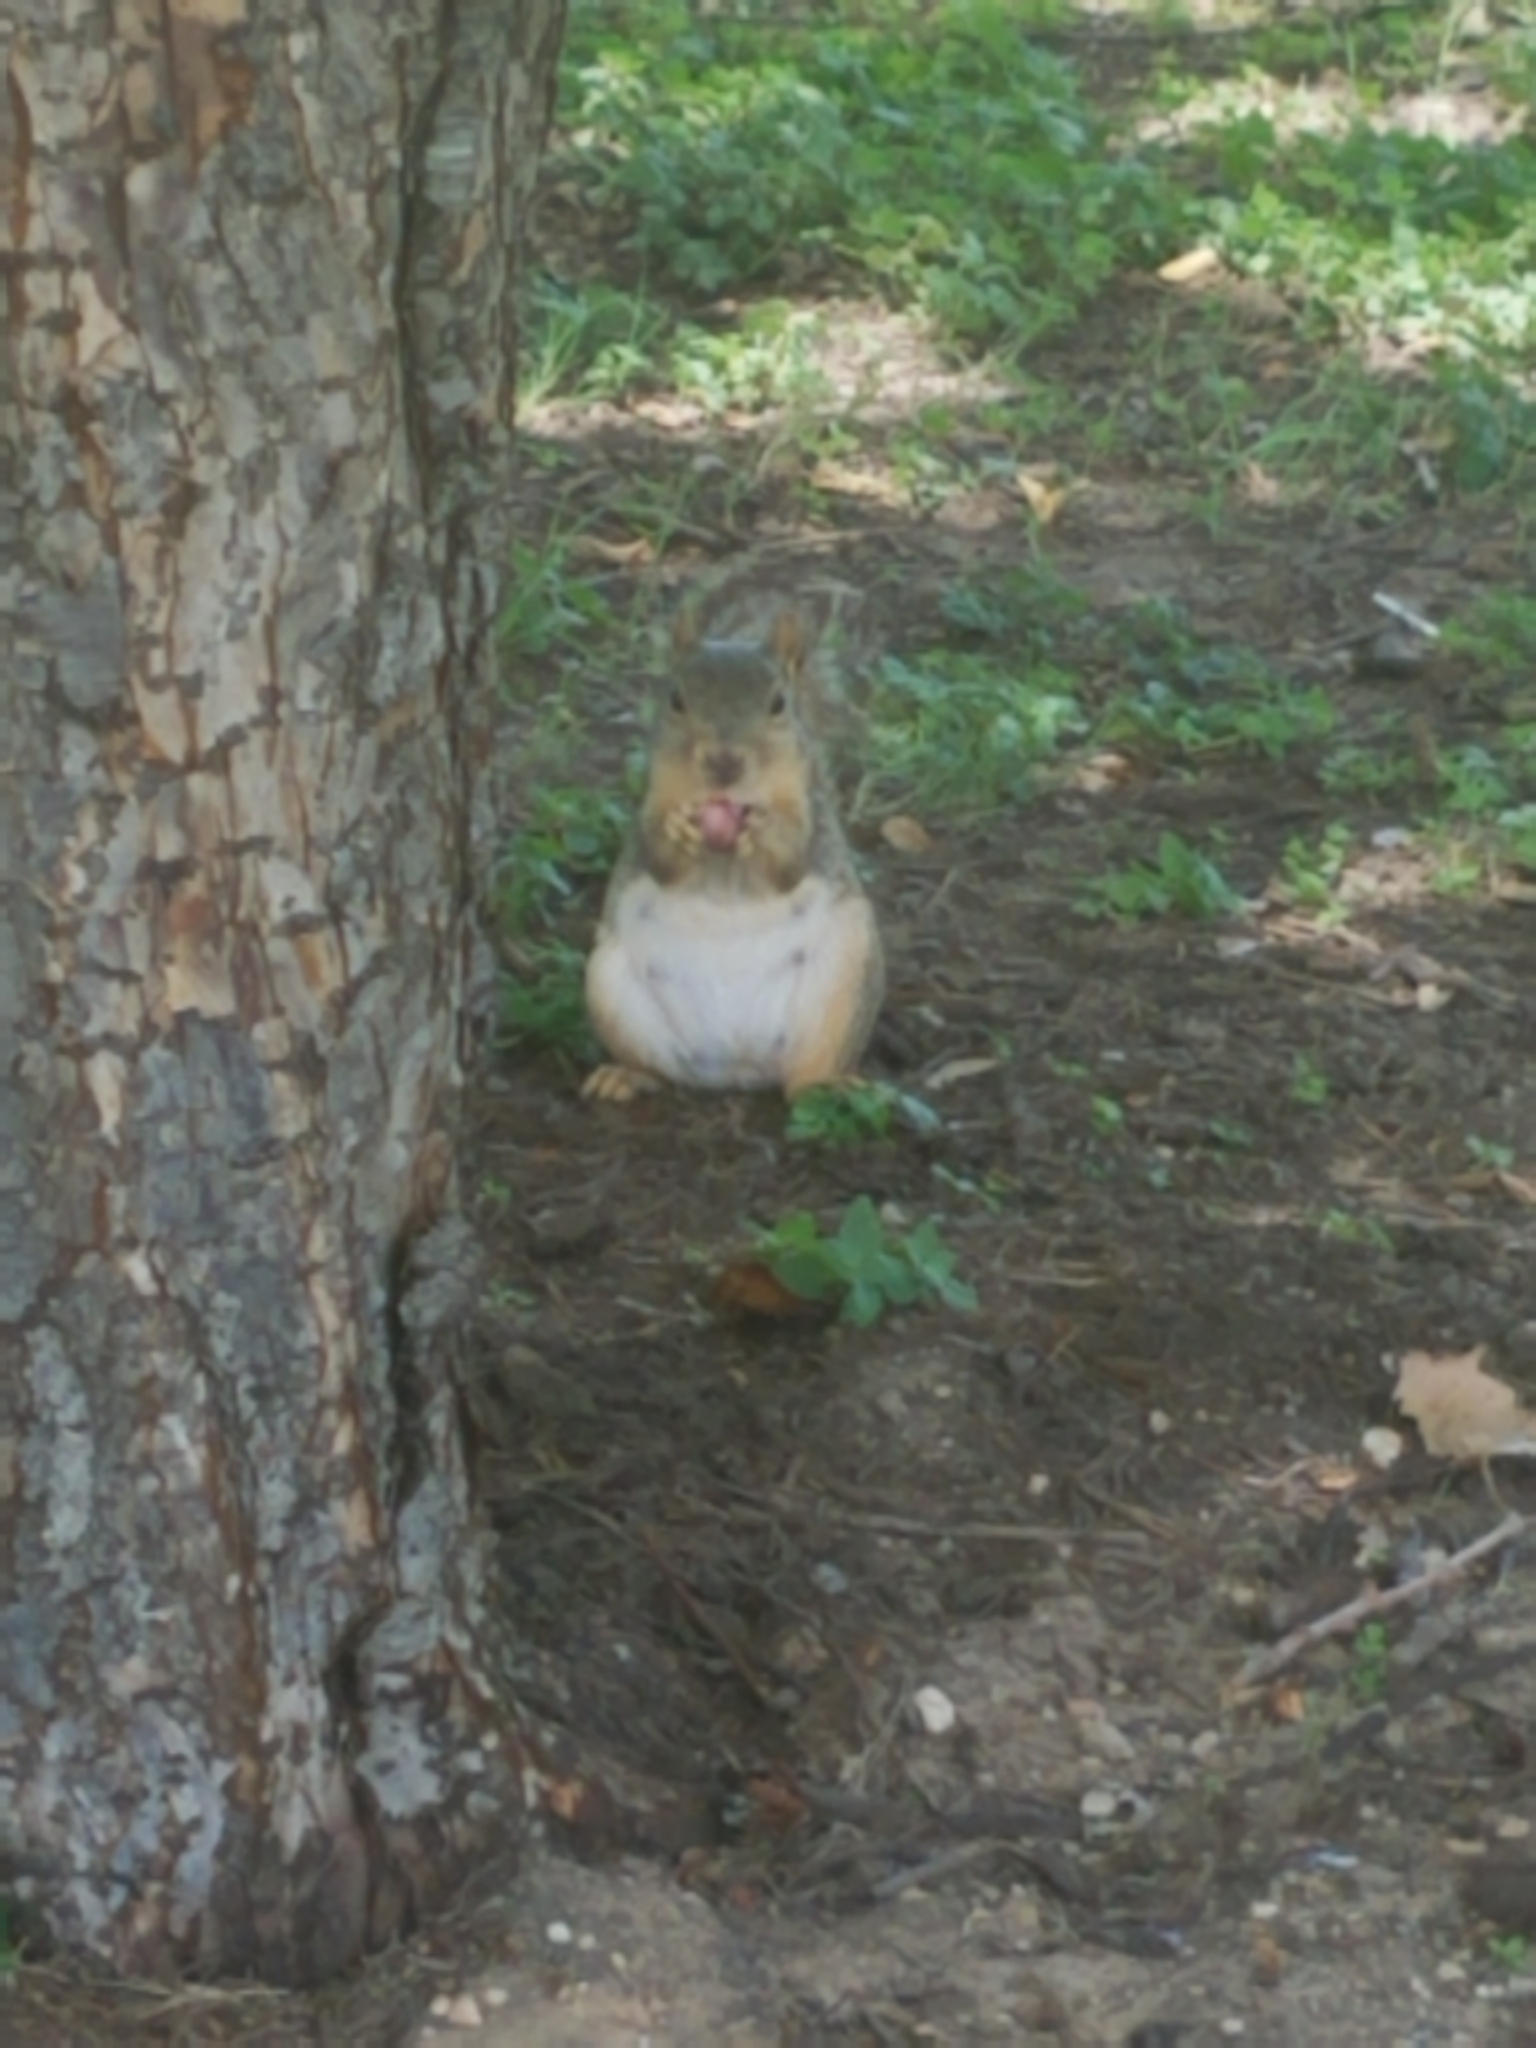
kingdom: Animalia
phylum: Chordata
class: Mammalia
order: Rodentia
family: Sciuridae
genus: Sciurus
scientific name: Sciurus niger
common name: Fox squirrel
